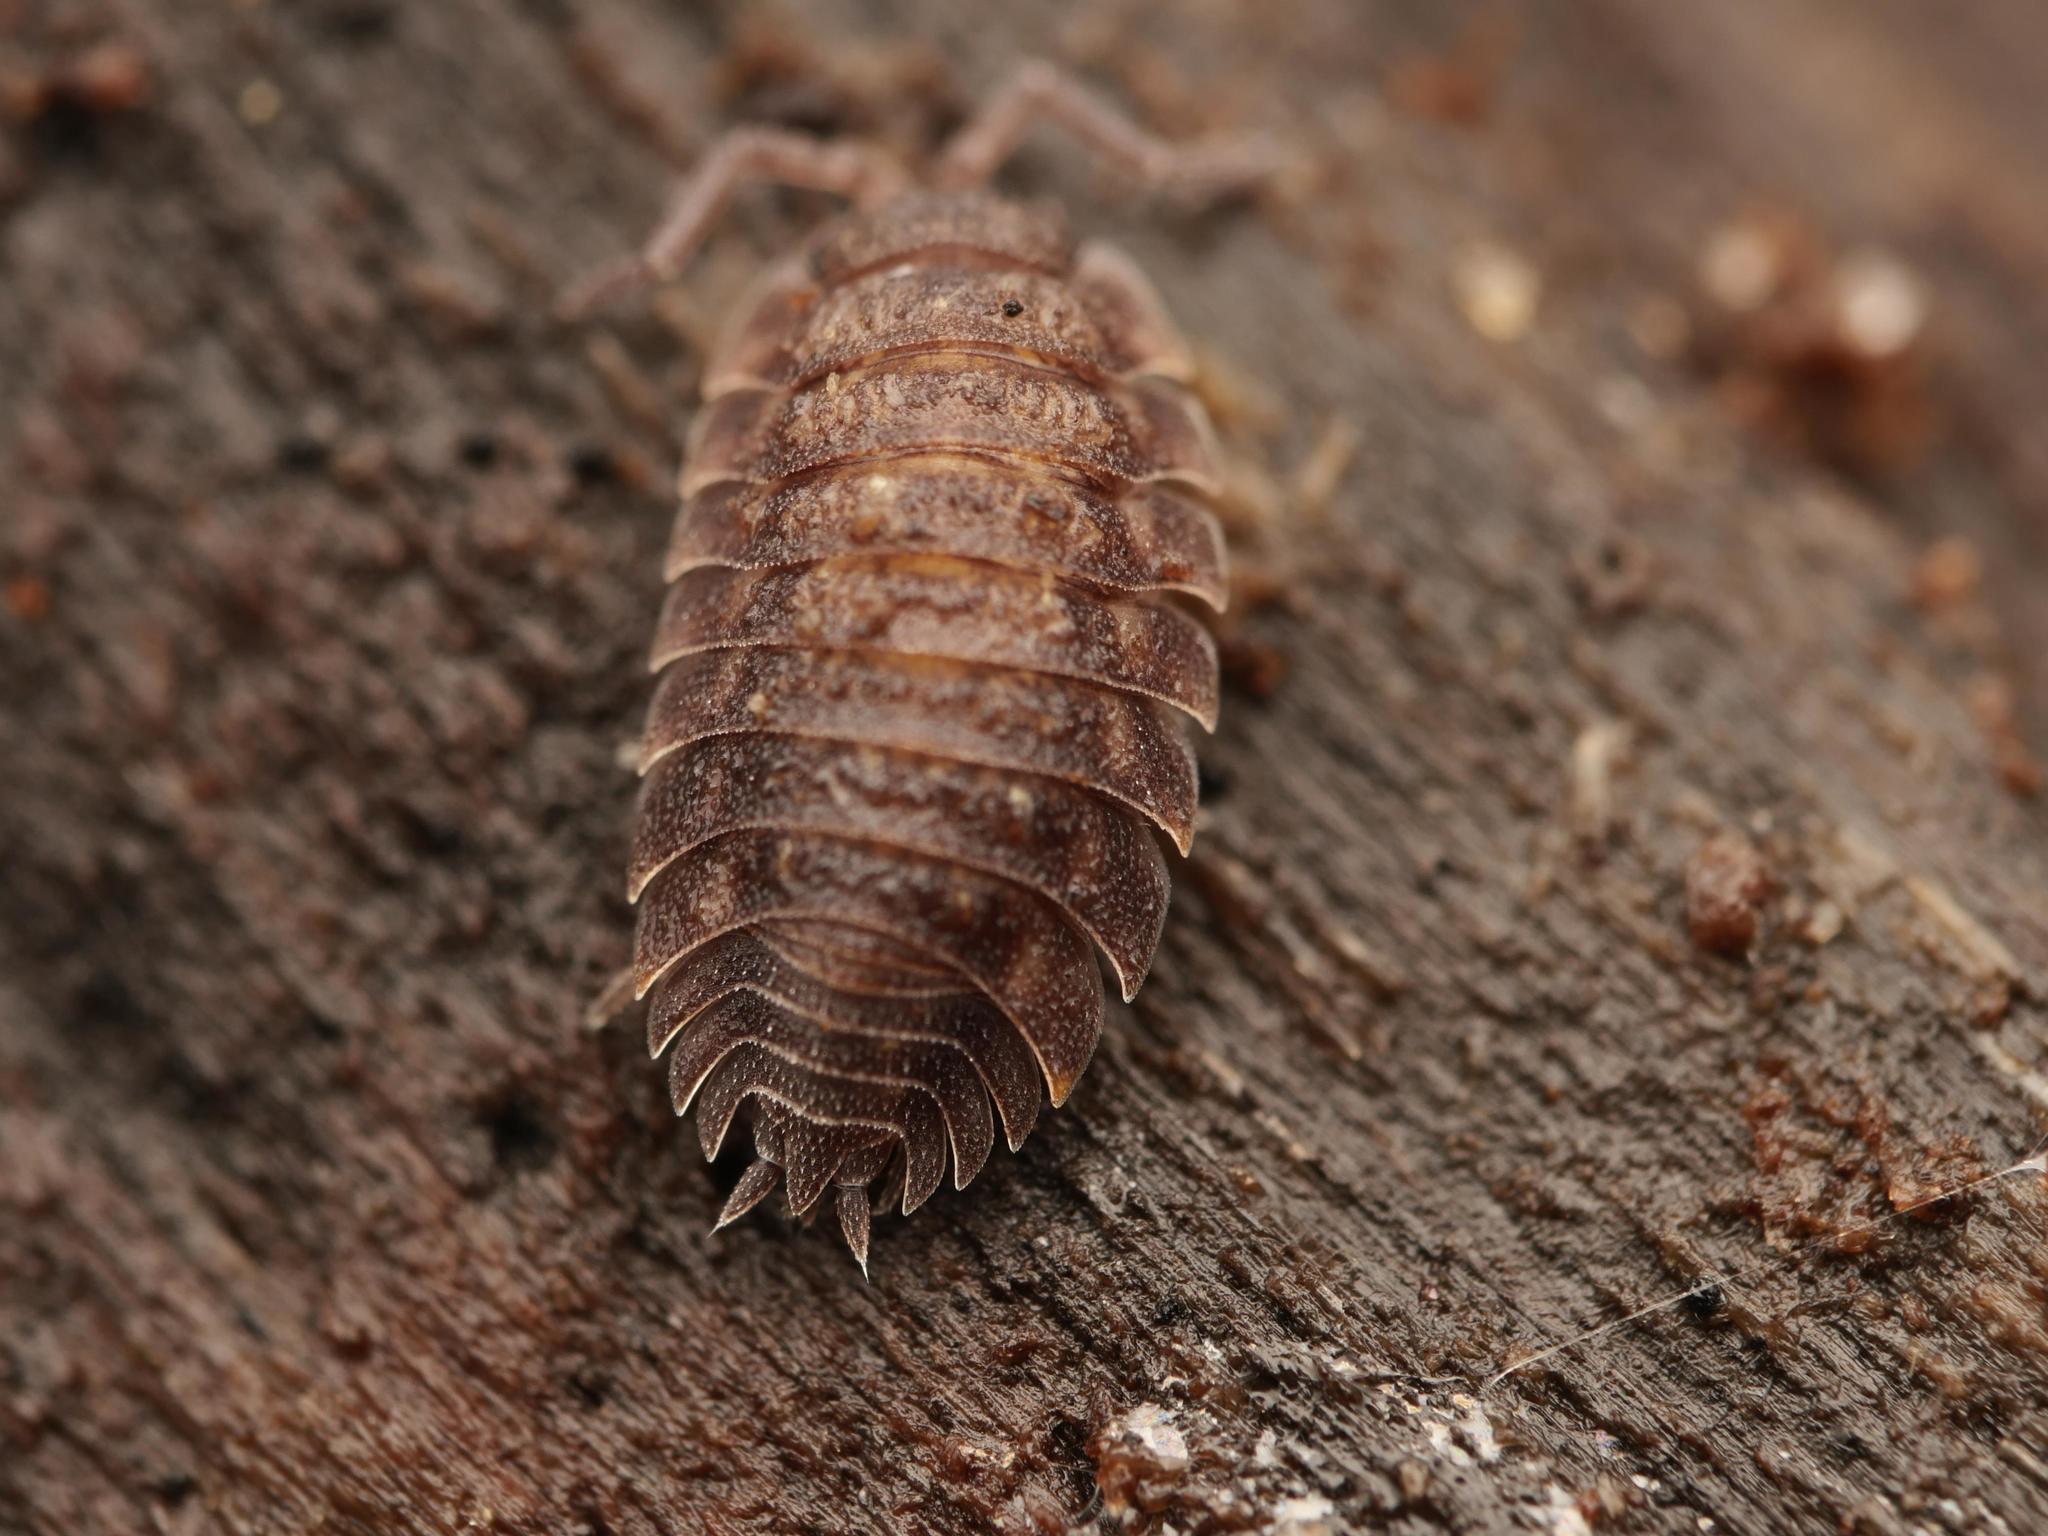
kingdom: Animalia
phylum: Arthropoda
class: Malacostraca
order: Isopoda
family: Oniscidae
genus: Oniscus
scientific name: Oniscus asellus
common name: Common shiny woodlouse
